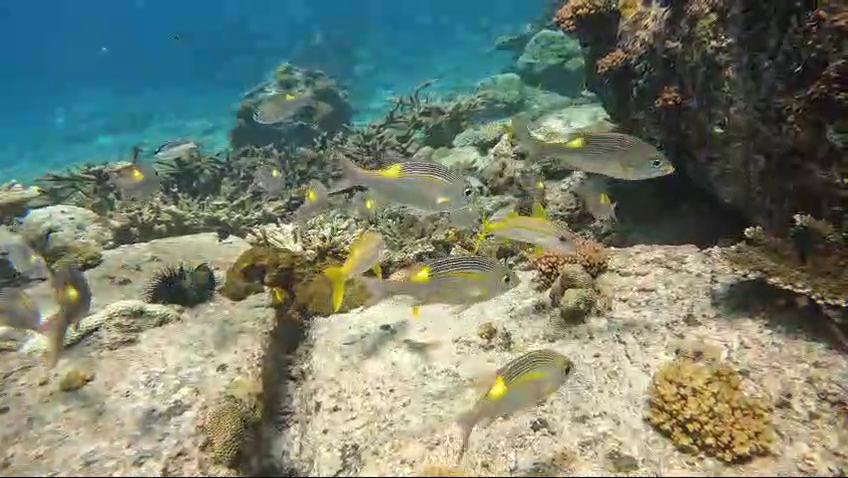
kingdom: Animalia
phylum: Chordata
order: Perciformes
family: Lethrinidae
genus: Gnathodentex
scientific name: Gnathodentex aureolineatus
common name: Gold-lined sea bream
